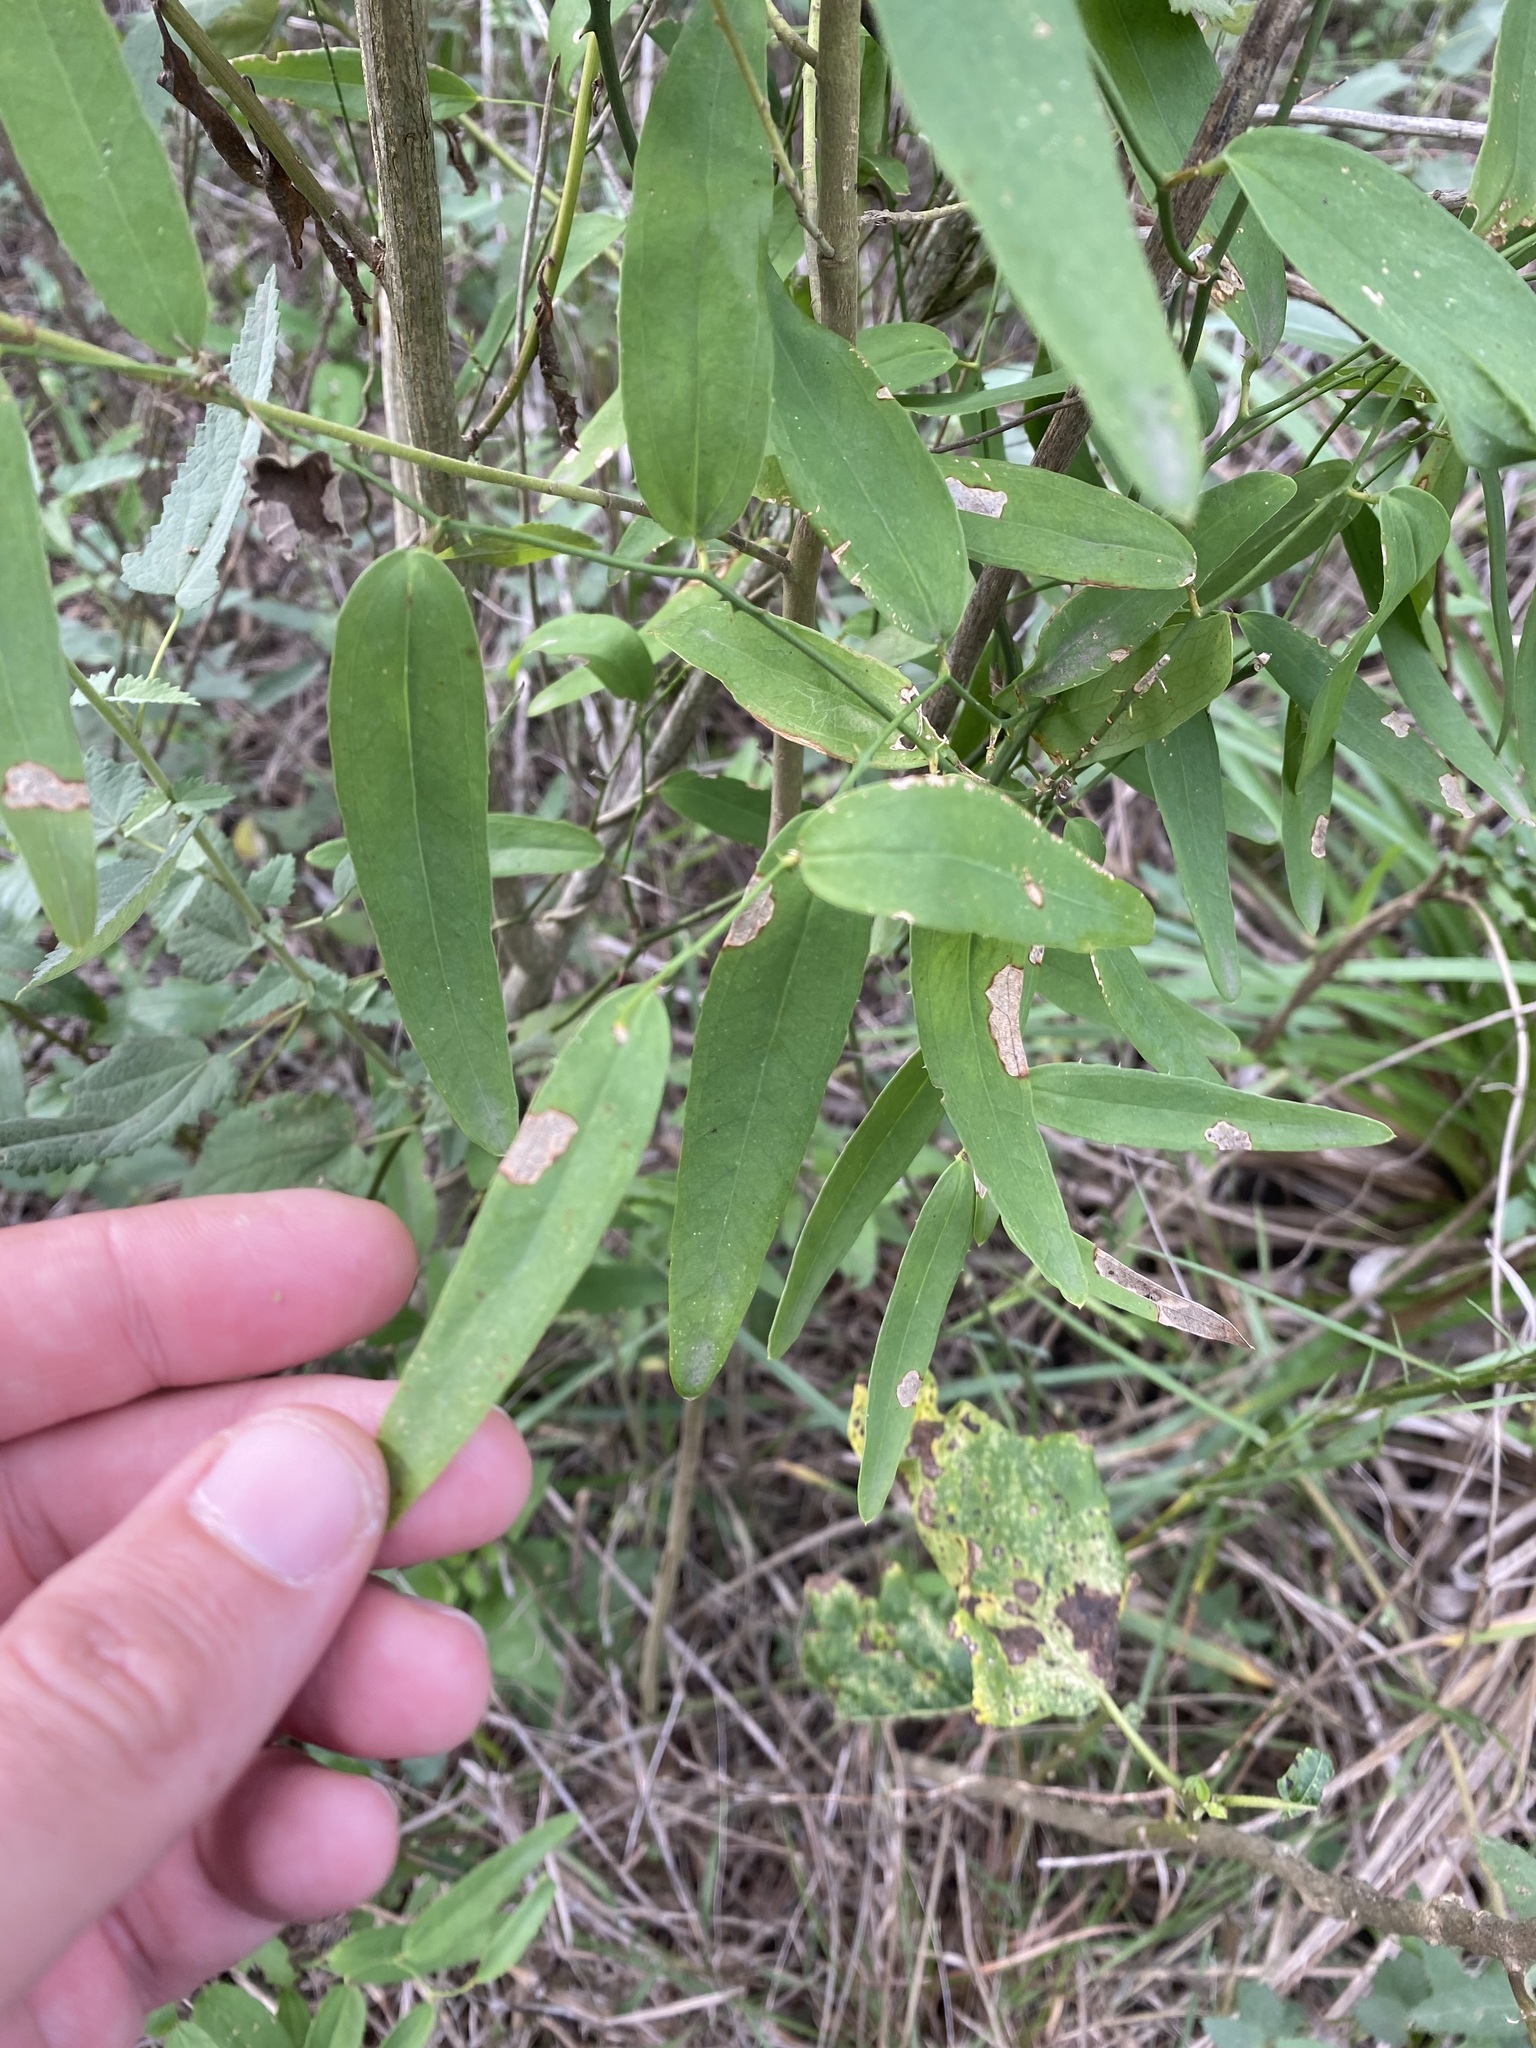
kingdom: Plantae
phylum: Tracheophyta
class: Liliopsida
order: Liliales
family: Smilacaceae
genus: Smilax
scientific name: Smilax campestris
